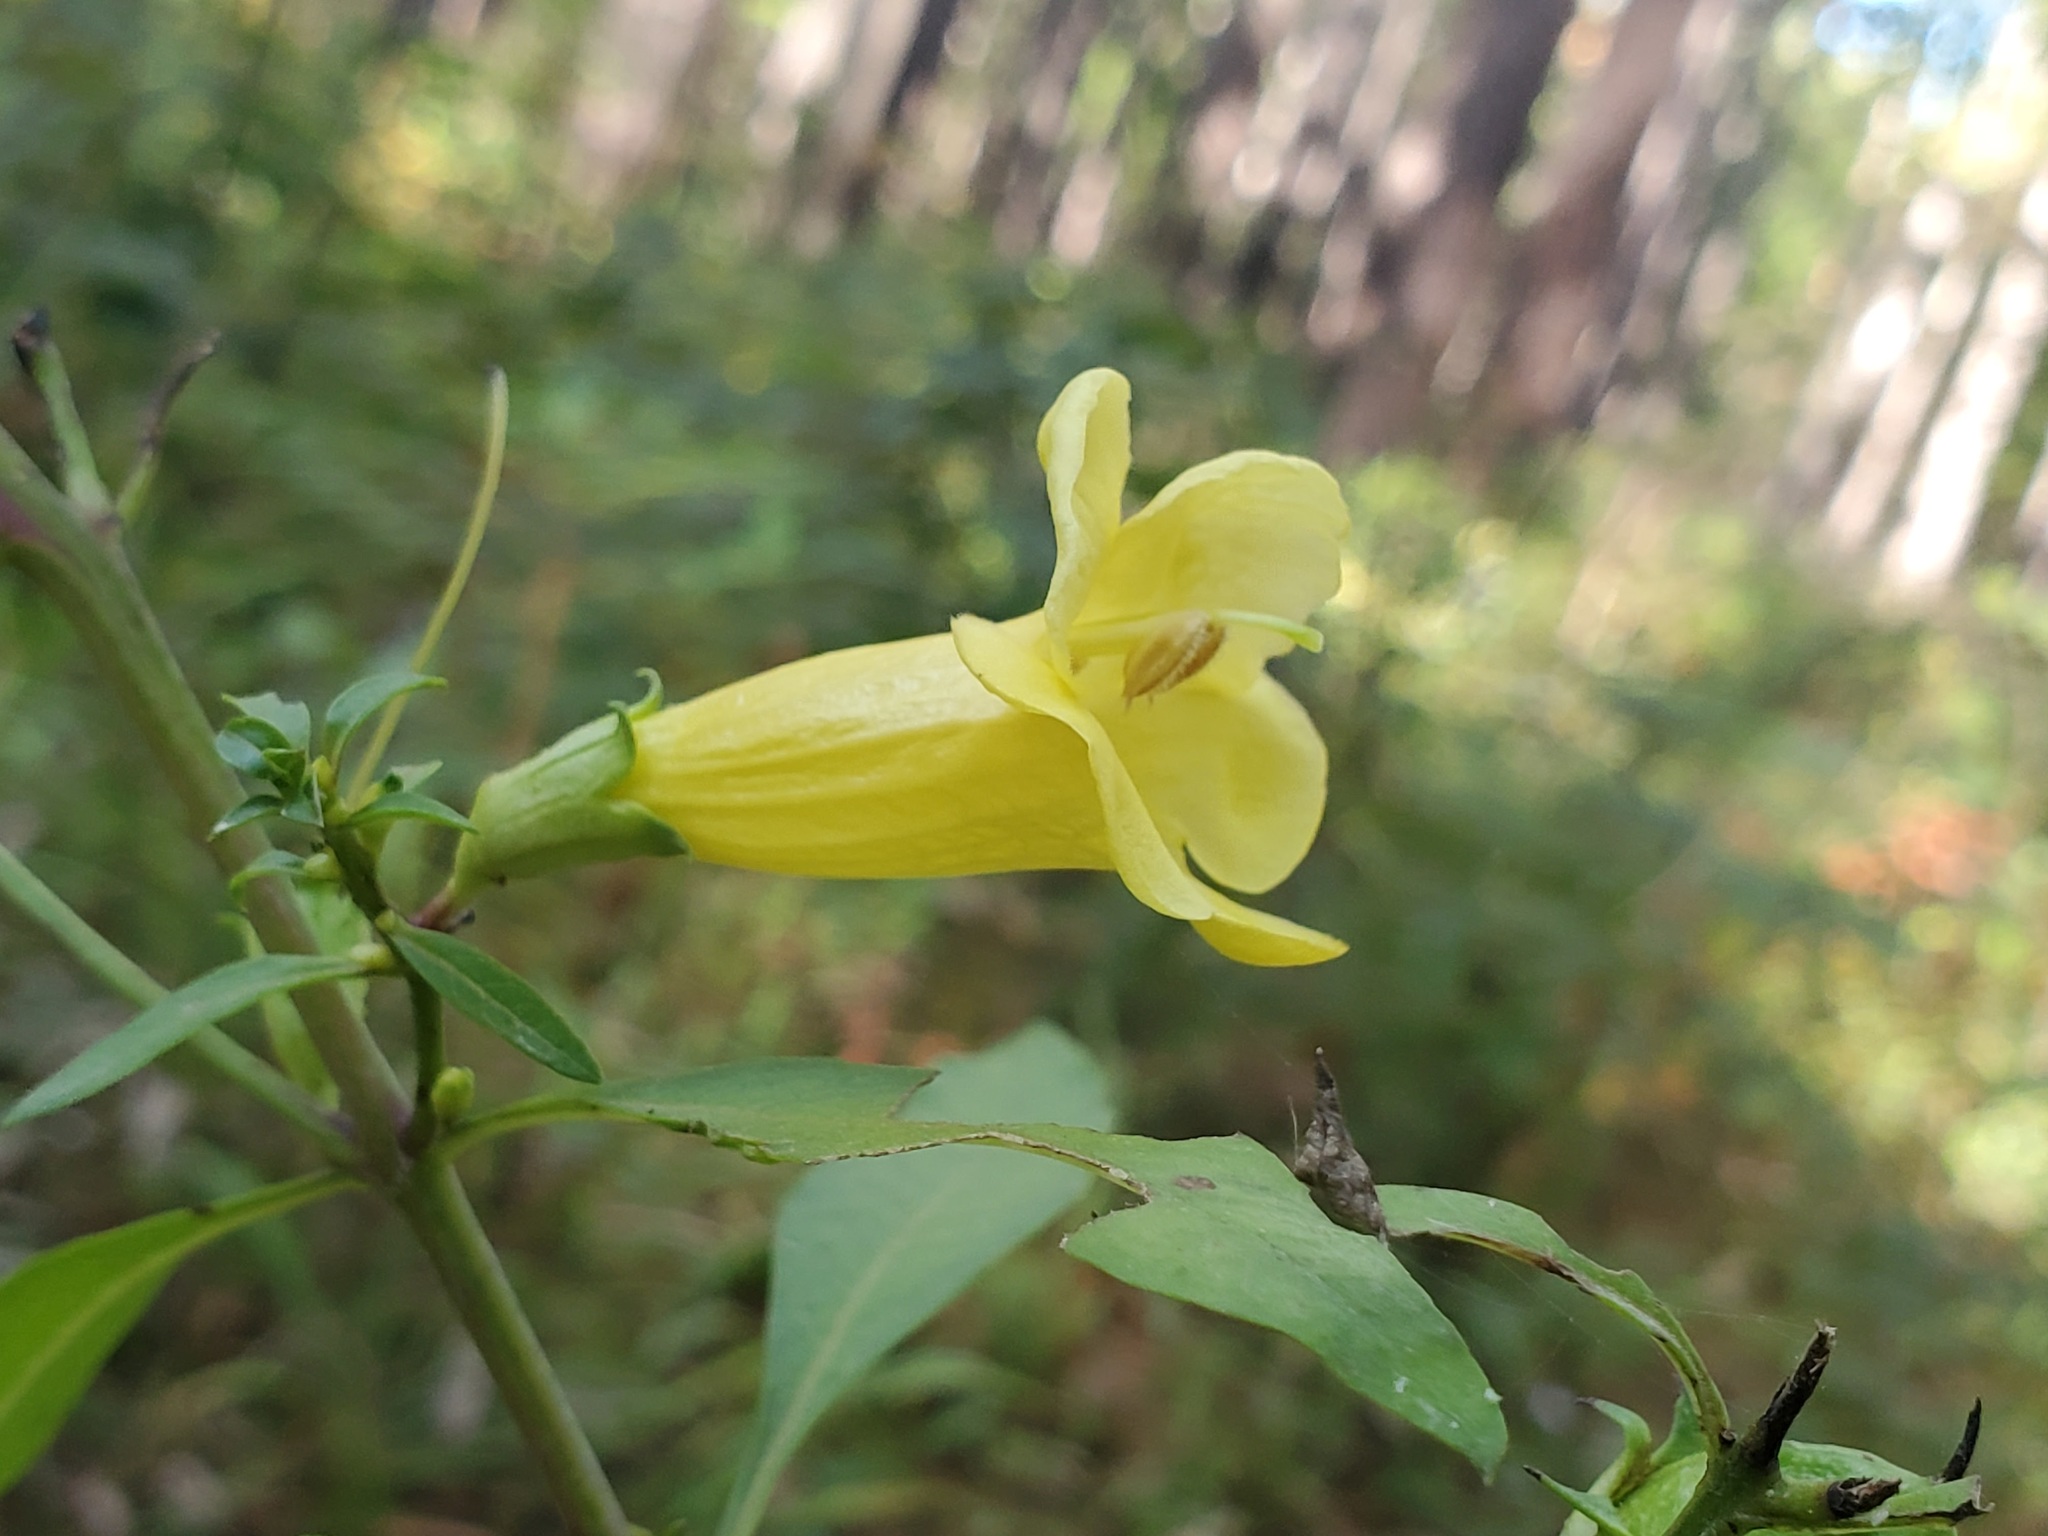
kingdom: Plantae
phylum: Tracheophyta
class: Magnoliopsida
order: Lamiales
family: Orobanchaceae
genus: Aureolaria
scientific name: Aureolaria flava
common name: Smooth false foxglove
